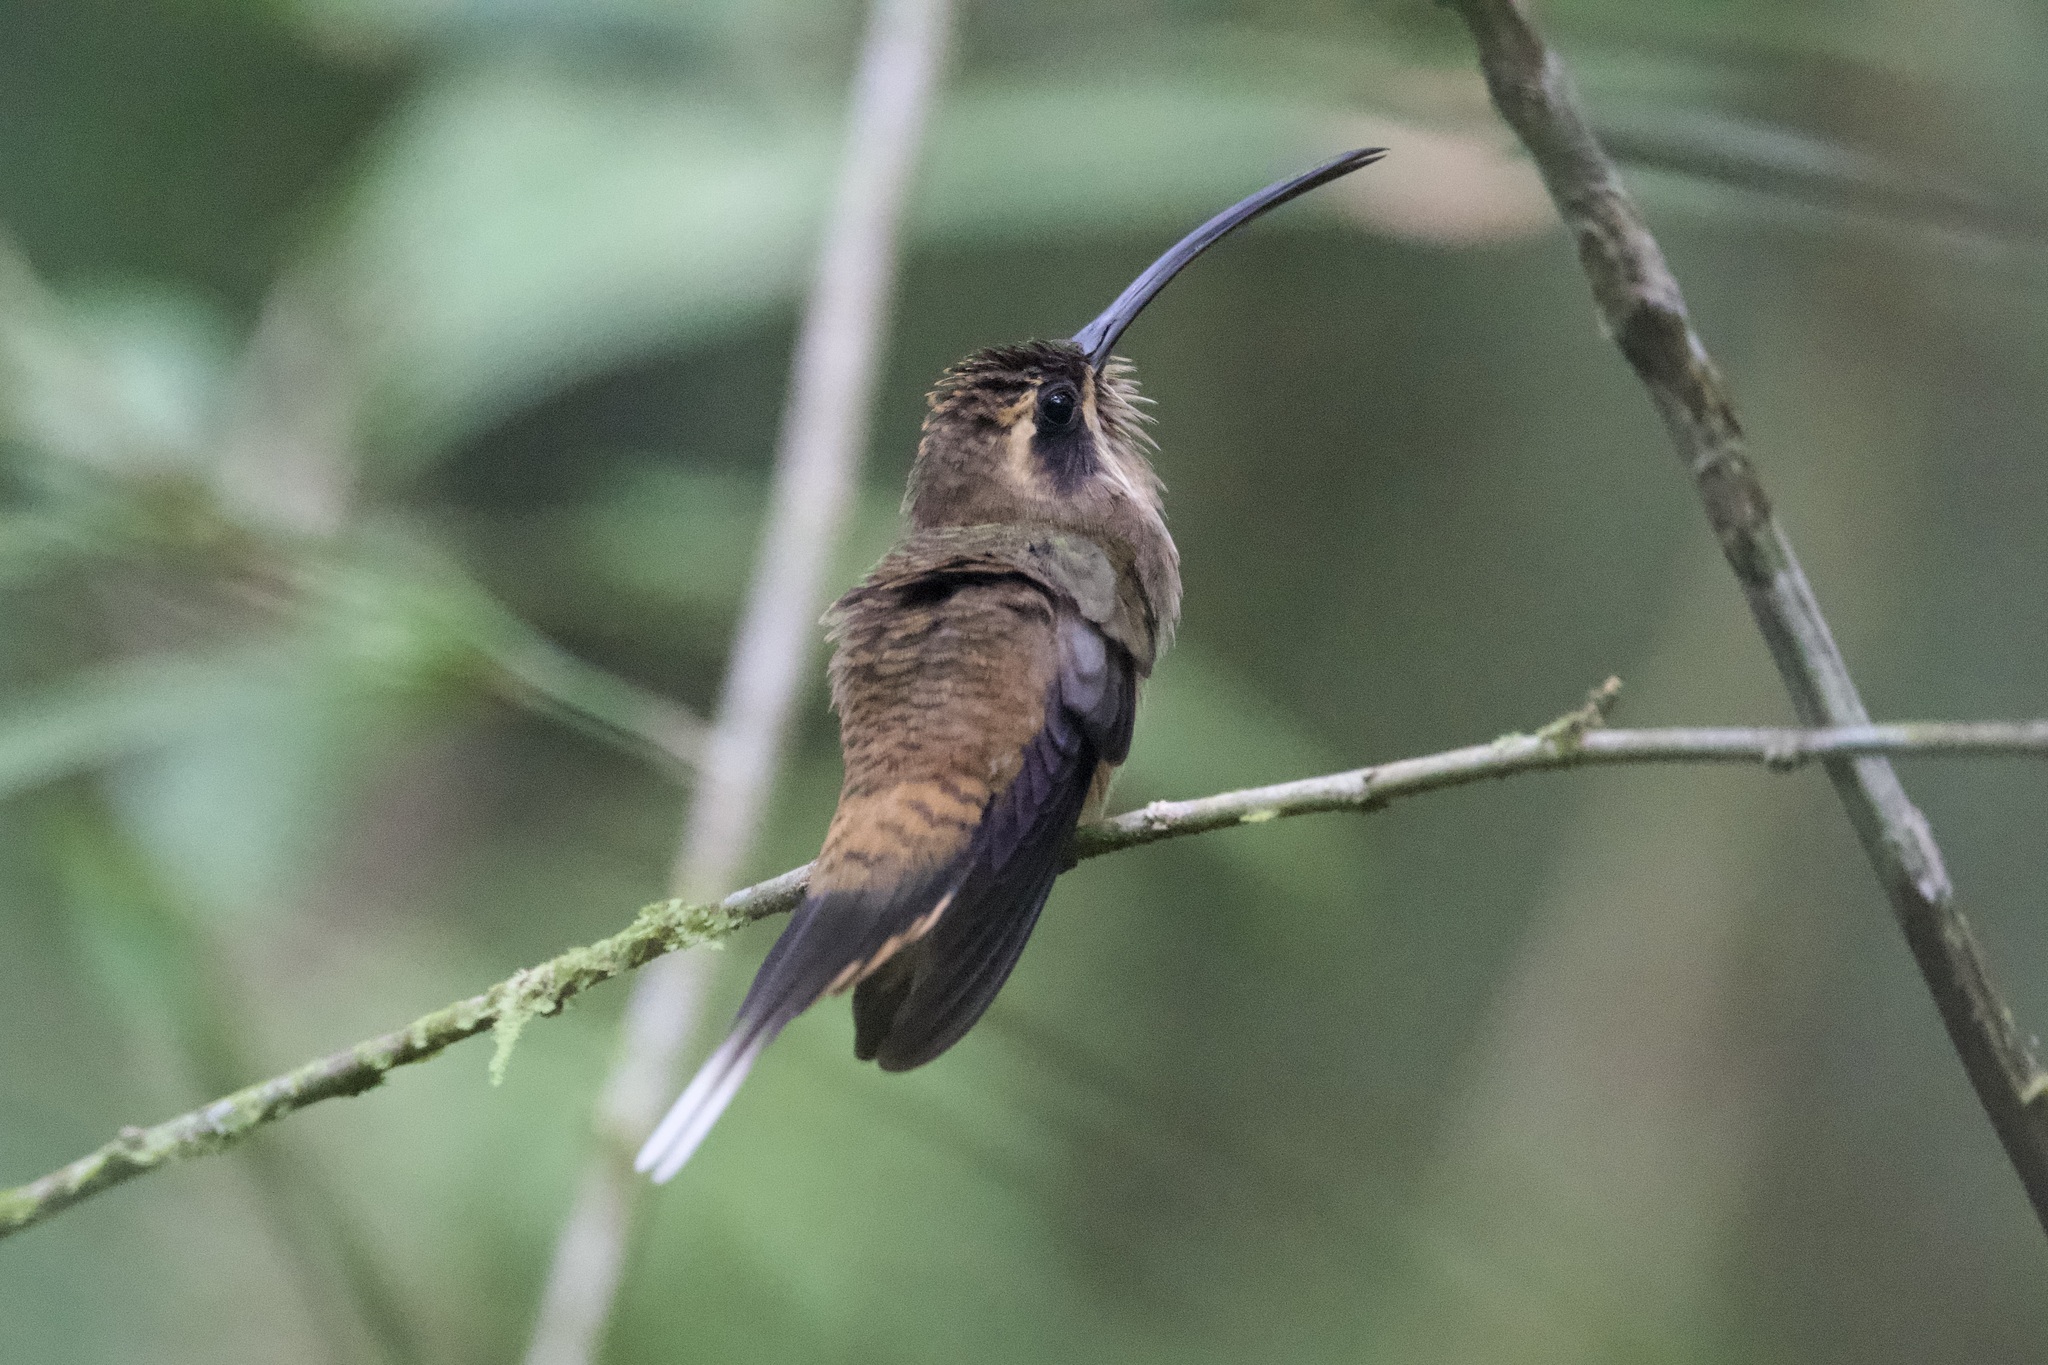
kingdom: Animalia
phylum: Chordata
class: Aves
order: Apodiformes
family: Trochilidae
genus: Phaethornis
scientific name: Phaethornis longirostris
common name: Long-billed hermit
